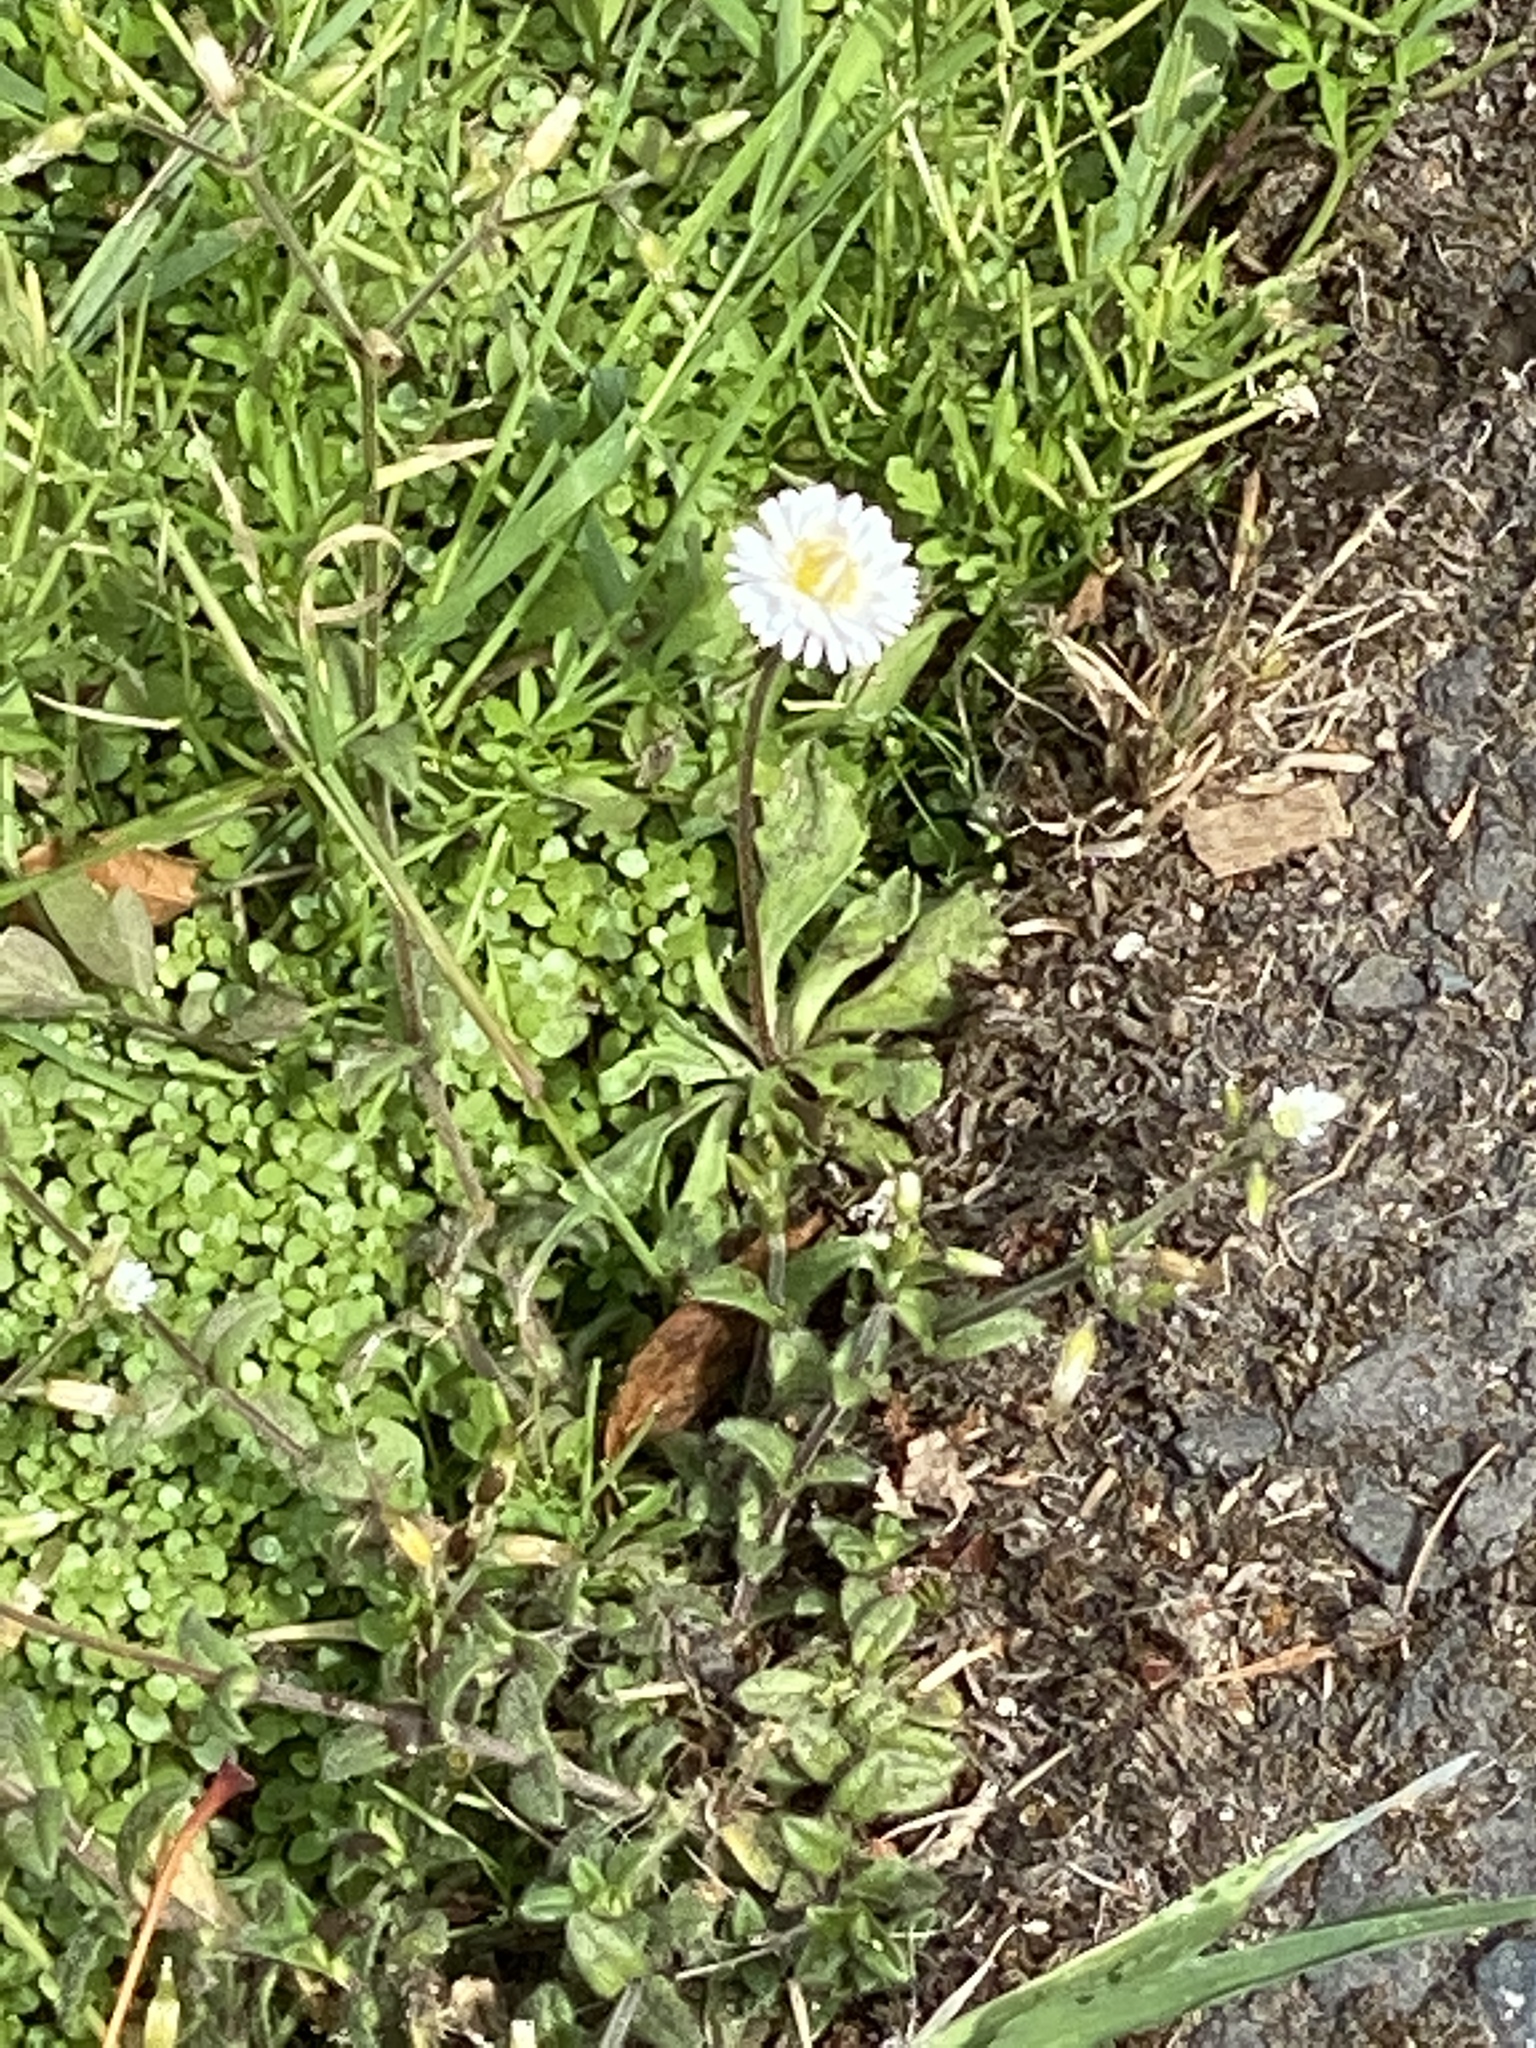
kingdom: Plantae
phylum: Tracheophyta
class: Magnoliopsida
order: Asterales
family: Asteraceae
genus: Bellis
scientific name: Bellis perennis
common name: Lawndaisy
